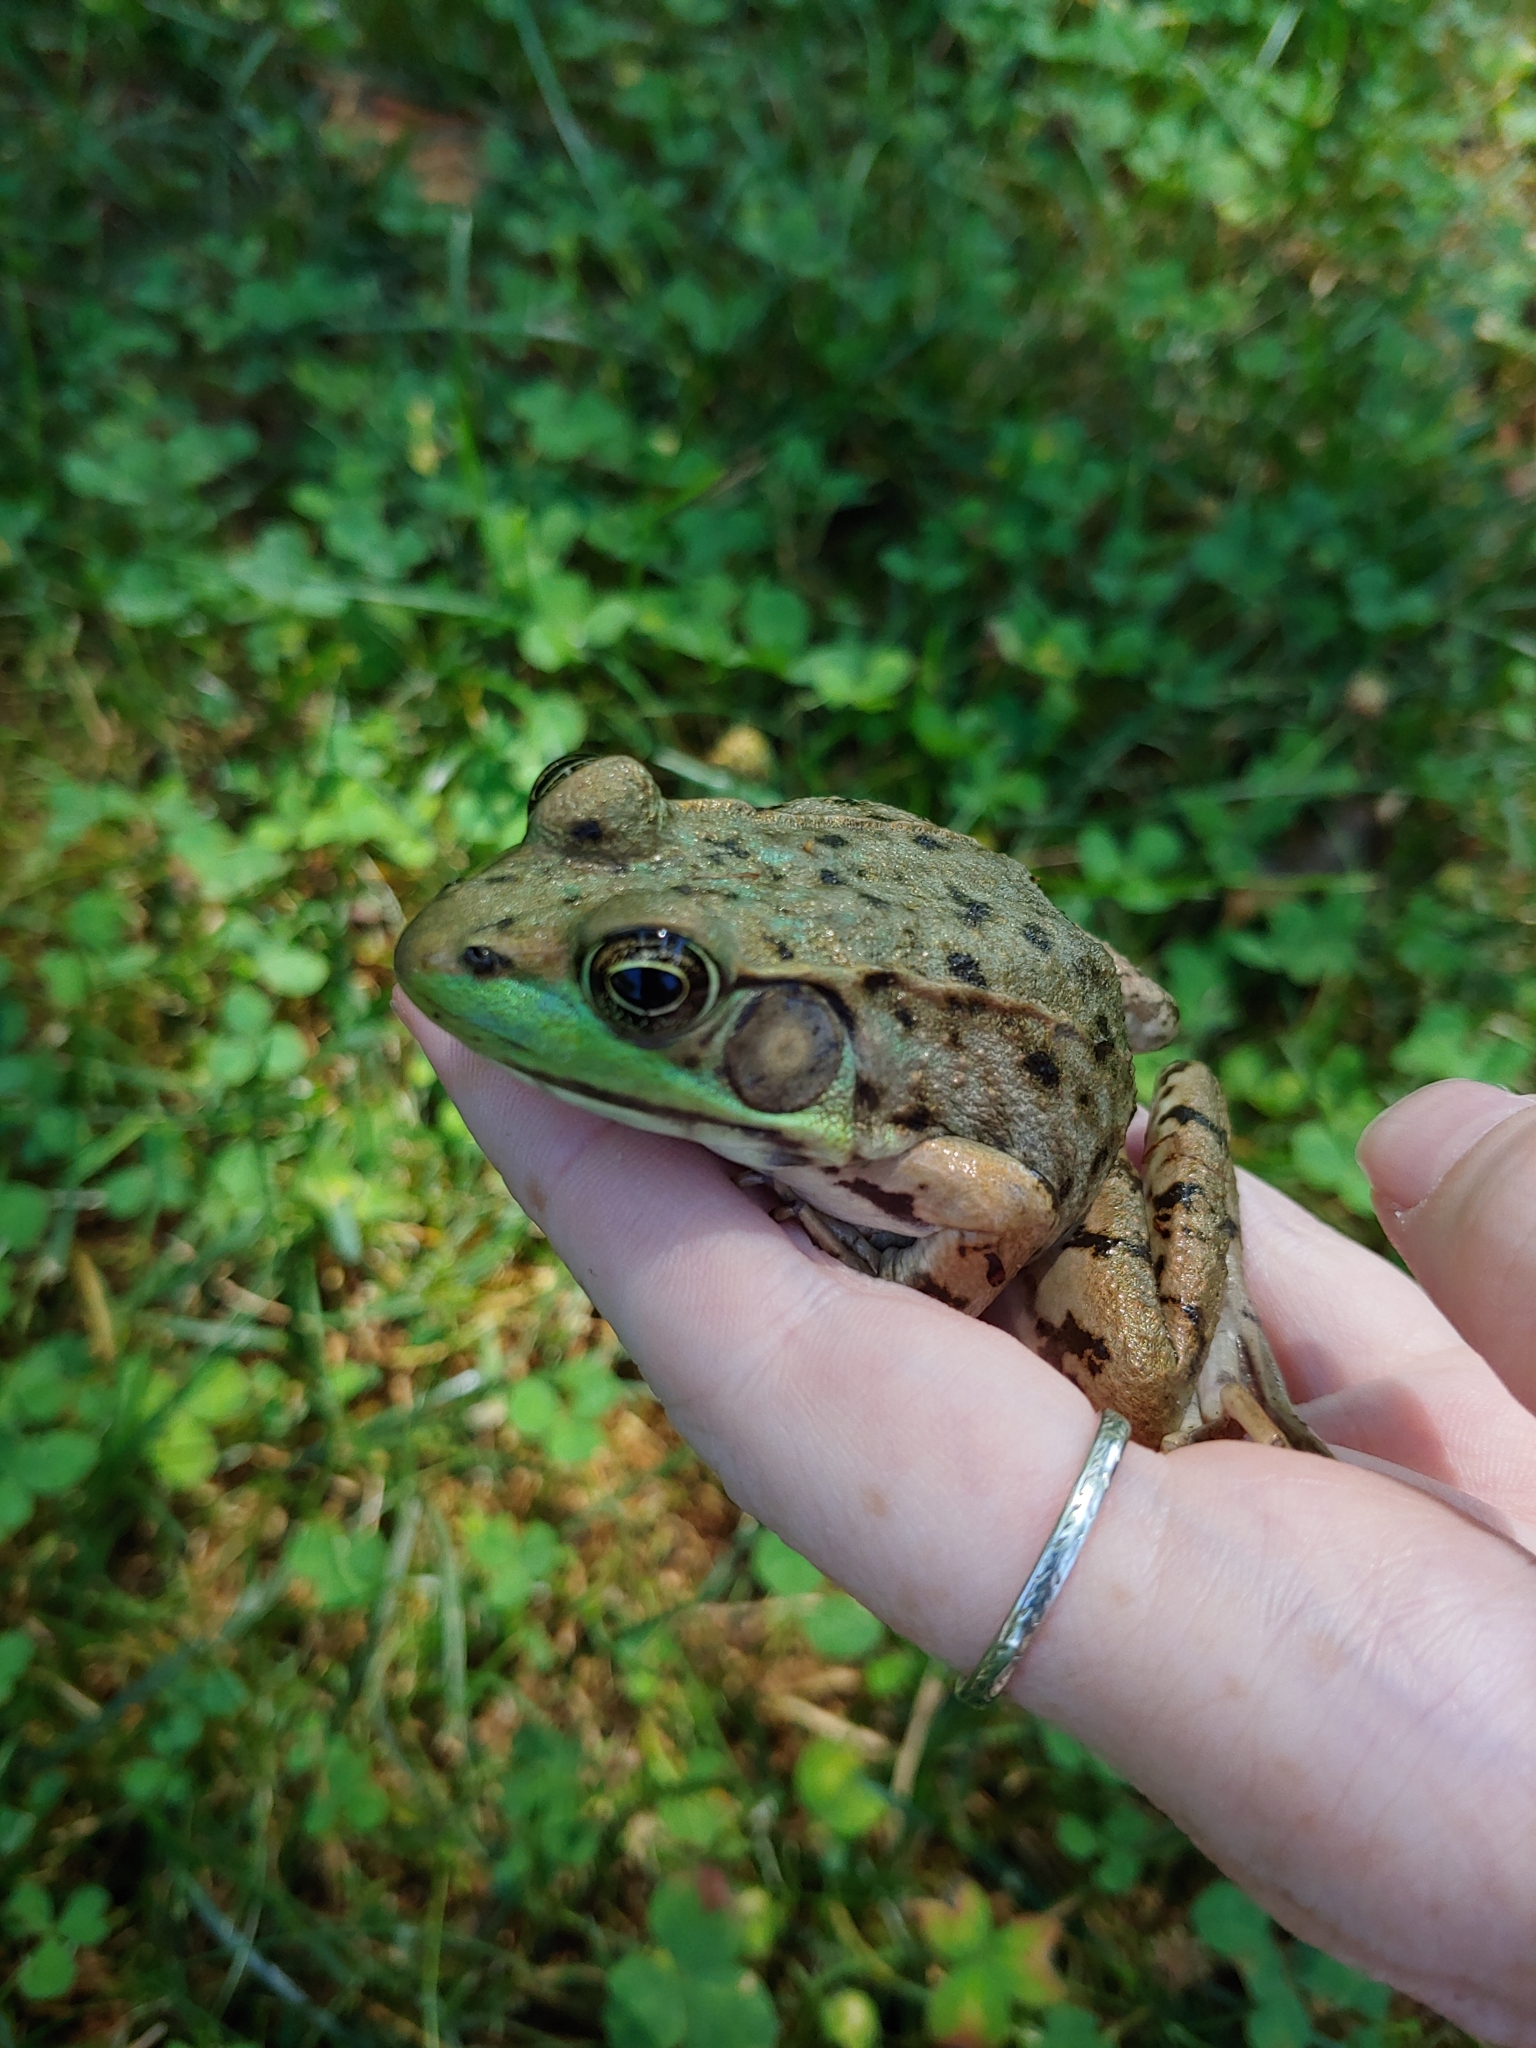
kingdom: Animalia
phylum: Chordata
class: Amphibia
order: Anura
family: Ranidae
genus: Lithobates
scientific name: Lithobates clamitans
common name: Green frog
